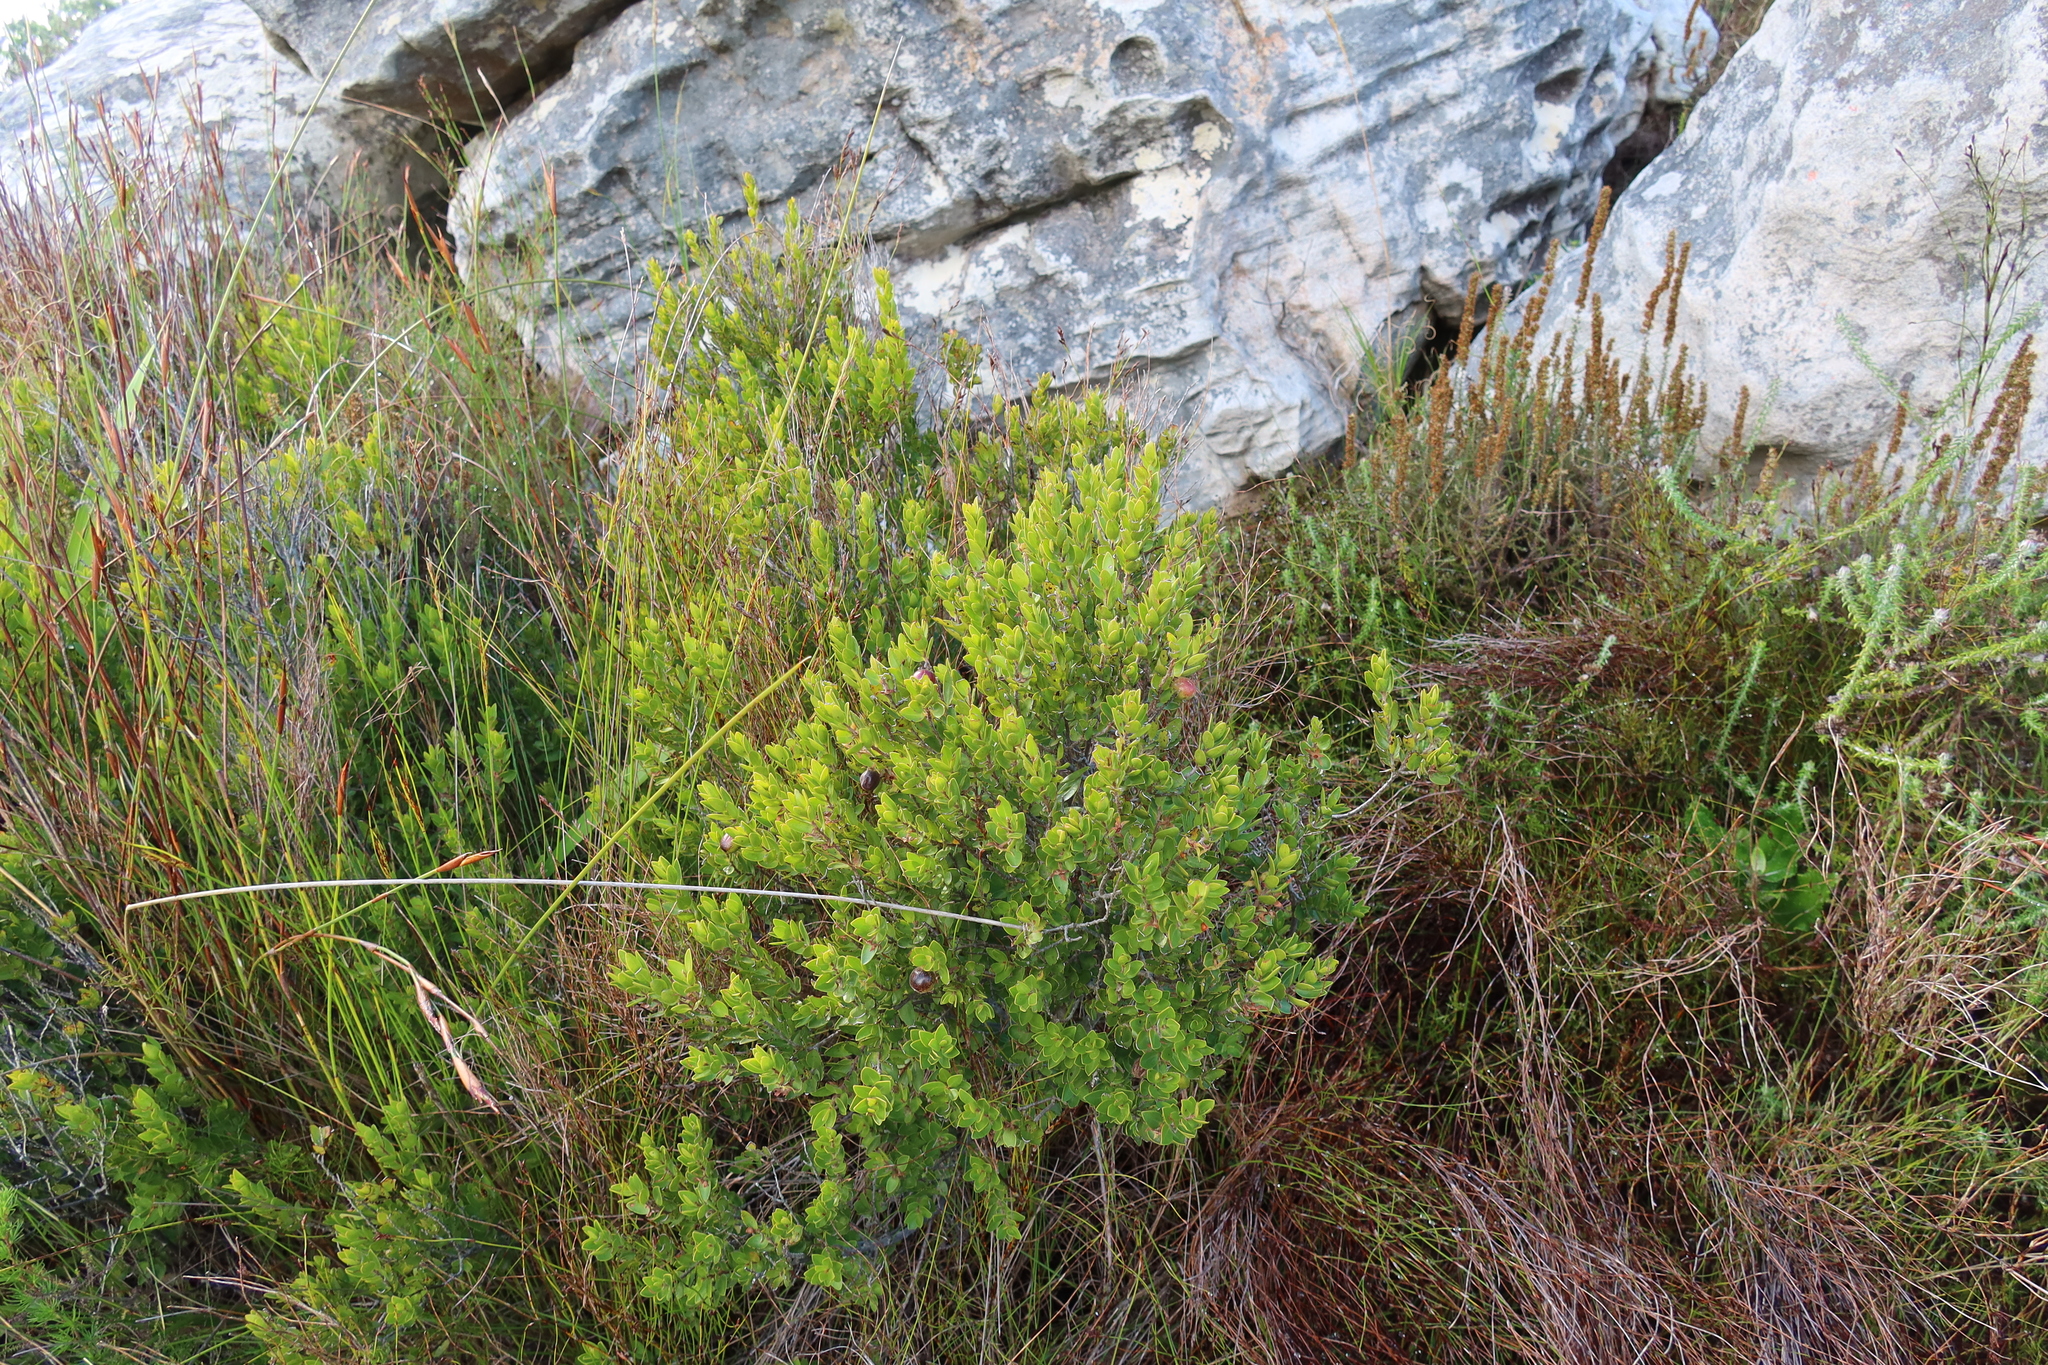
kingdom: Plantae
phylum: Tracheophyta
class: Magnoliopsida
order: Ericales
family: Ebenaceae
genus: Diospyros
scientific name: Diospyros glabra
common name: Fynbos star apple
